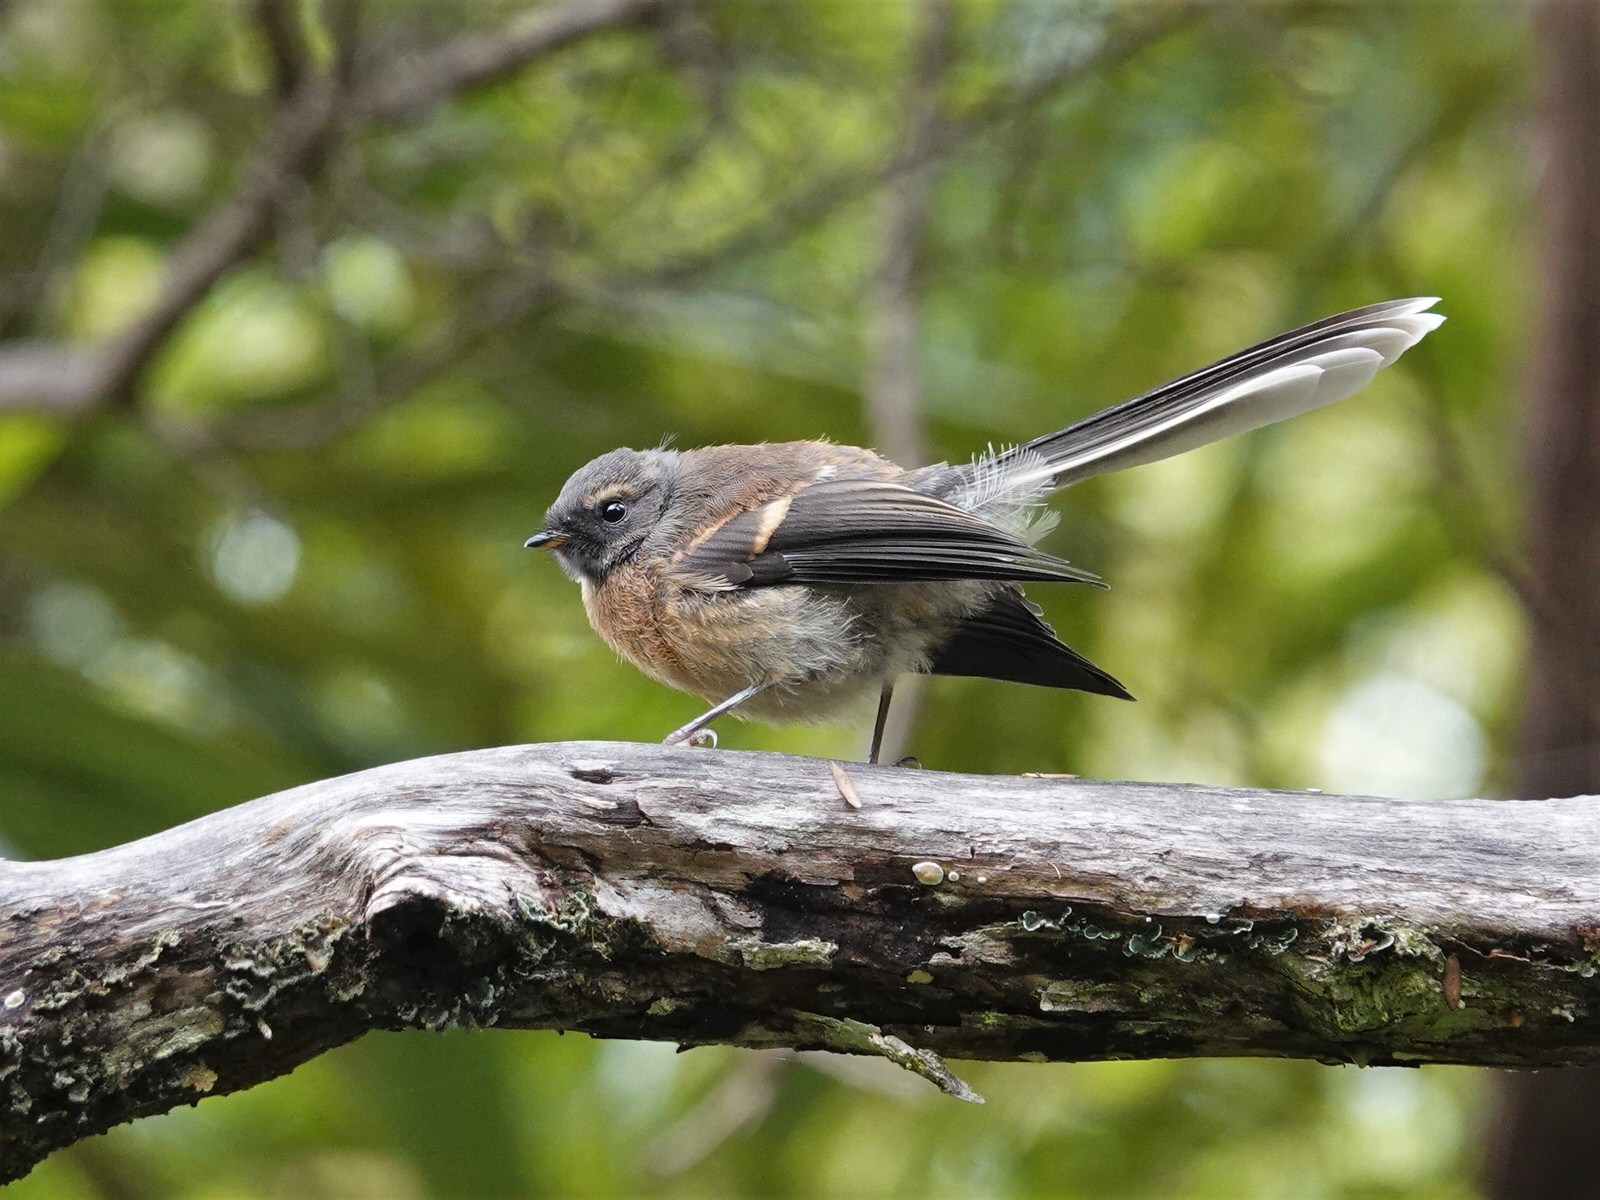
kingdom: Animalia
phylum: Chordata
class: Aves
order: Passeriformes
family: Rhipiduridae
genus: Rhipidura
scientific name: Rhipidura fuliginosa
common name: New zealand fantail
